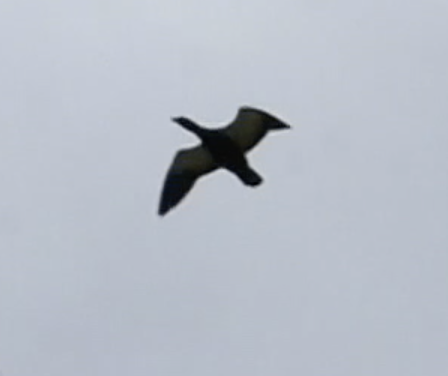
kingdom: Animalia
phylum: Chordata
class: Aves
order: Anseriformes
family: Anatidae
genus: Tadorna
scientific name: Tadorna variegata
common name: Paradise shelduck
